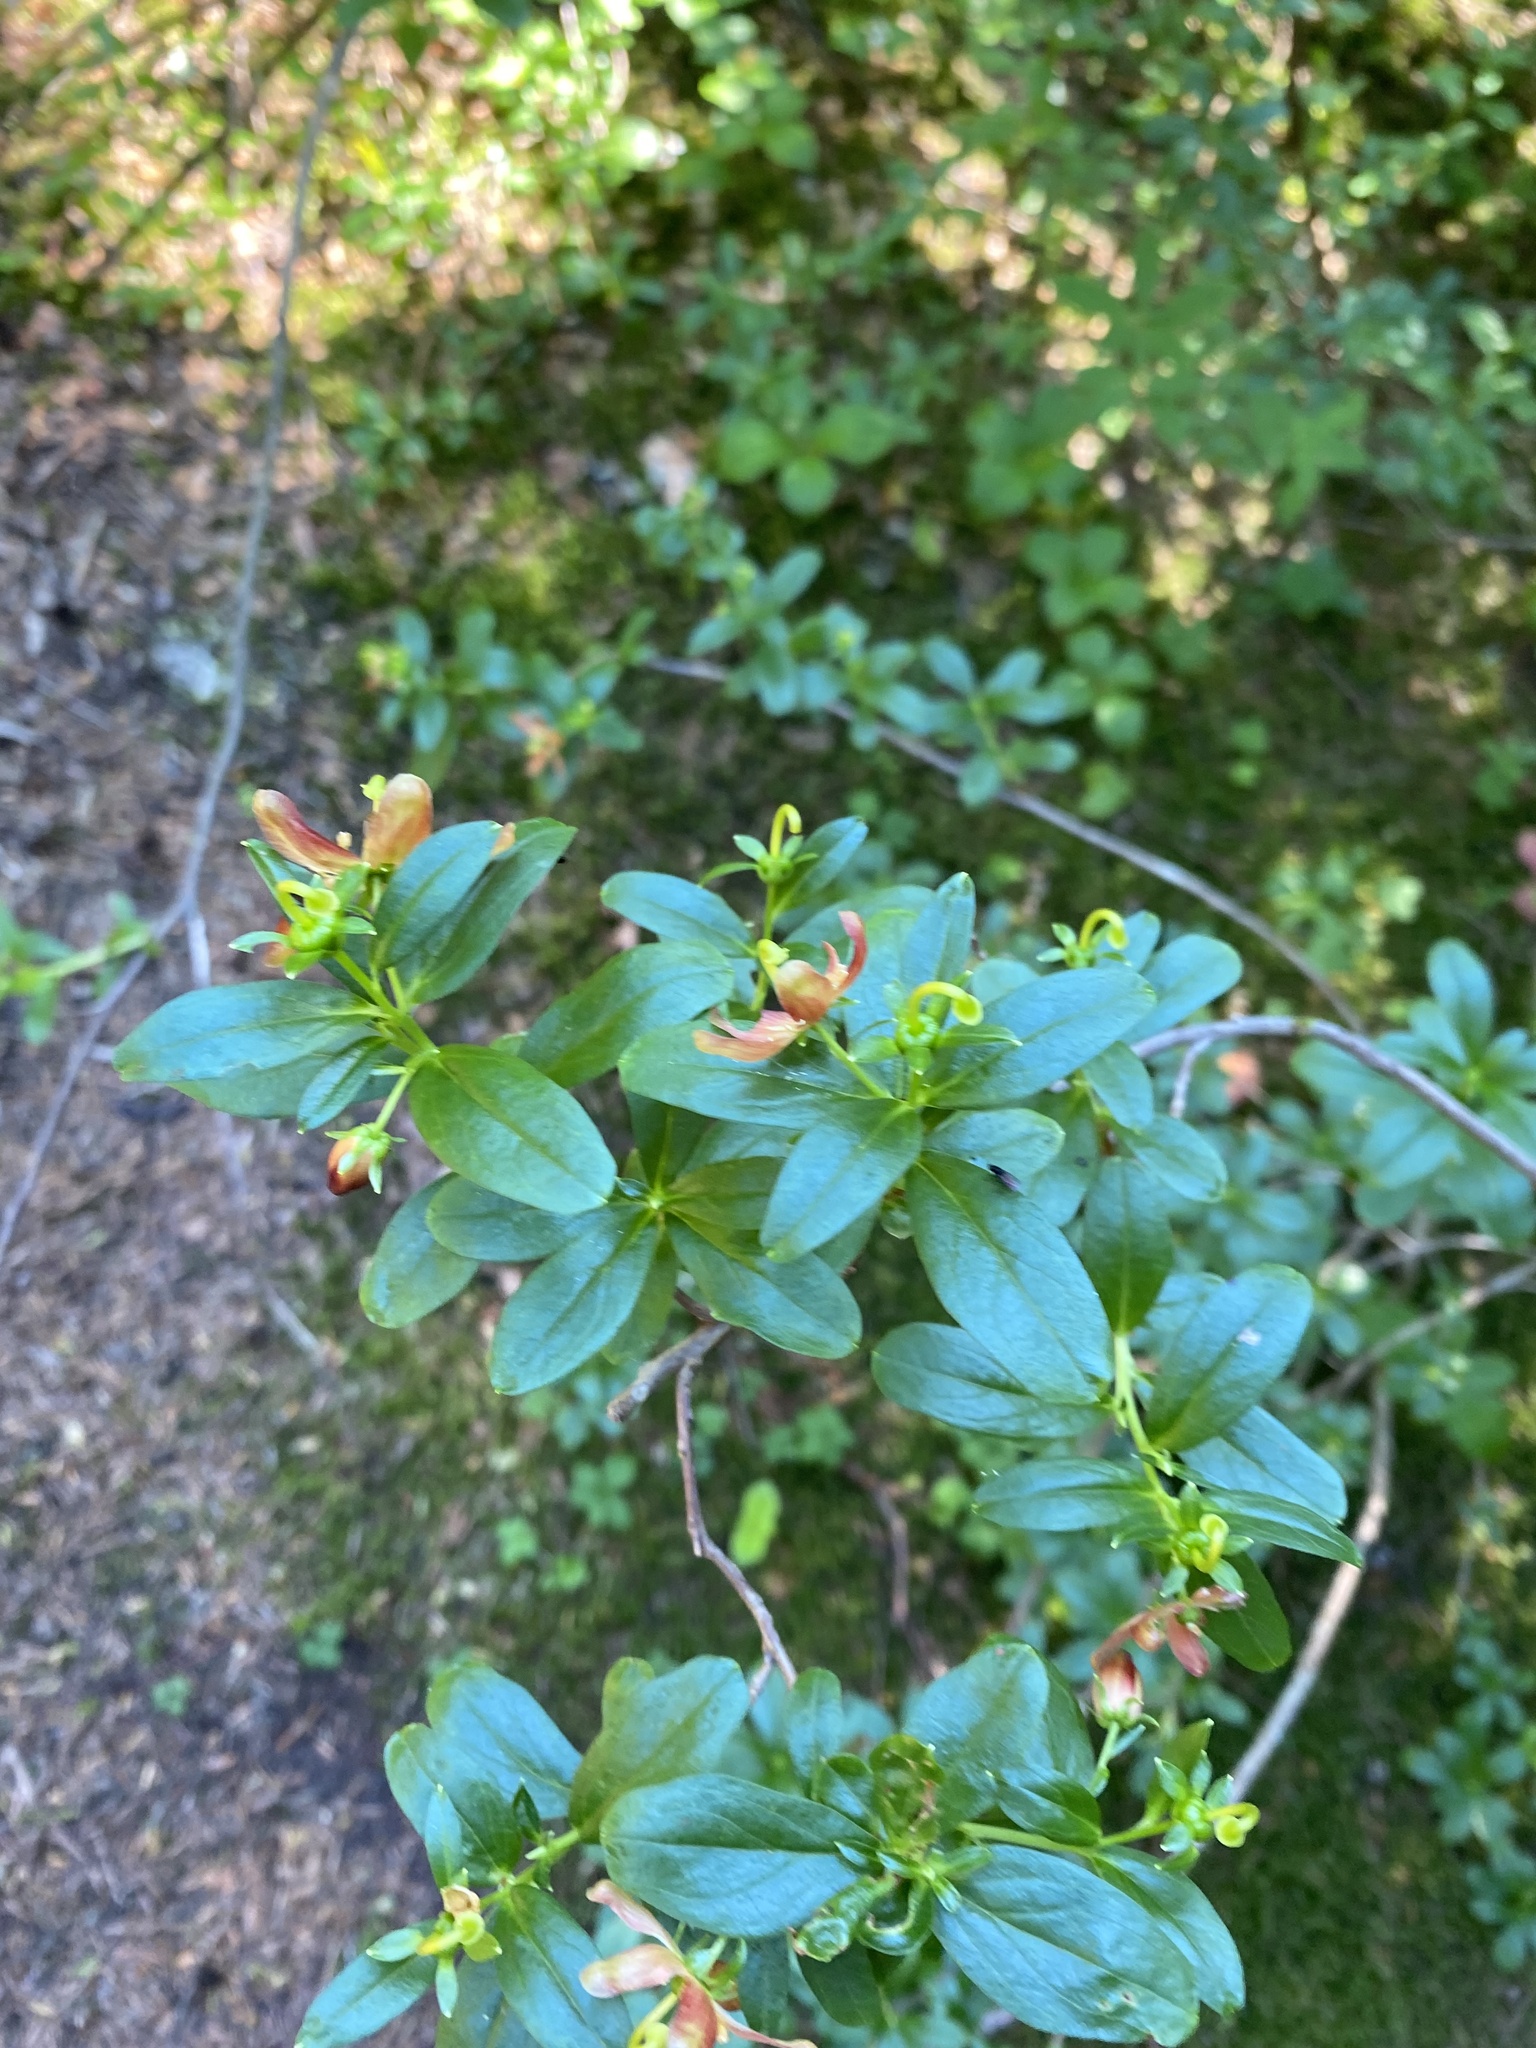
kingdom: Plantae
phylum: Tracheophyta
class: Magnoliopsida
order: Ericales
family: Ericaceae
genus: Elliottia
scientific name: Elliottia pyroliflora
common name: Copperbush
